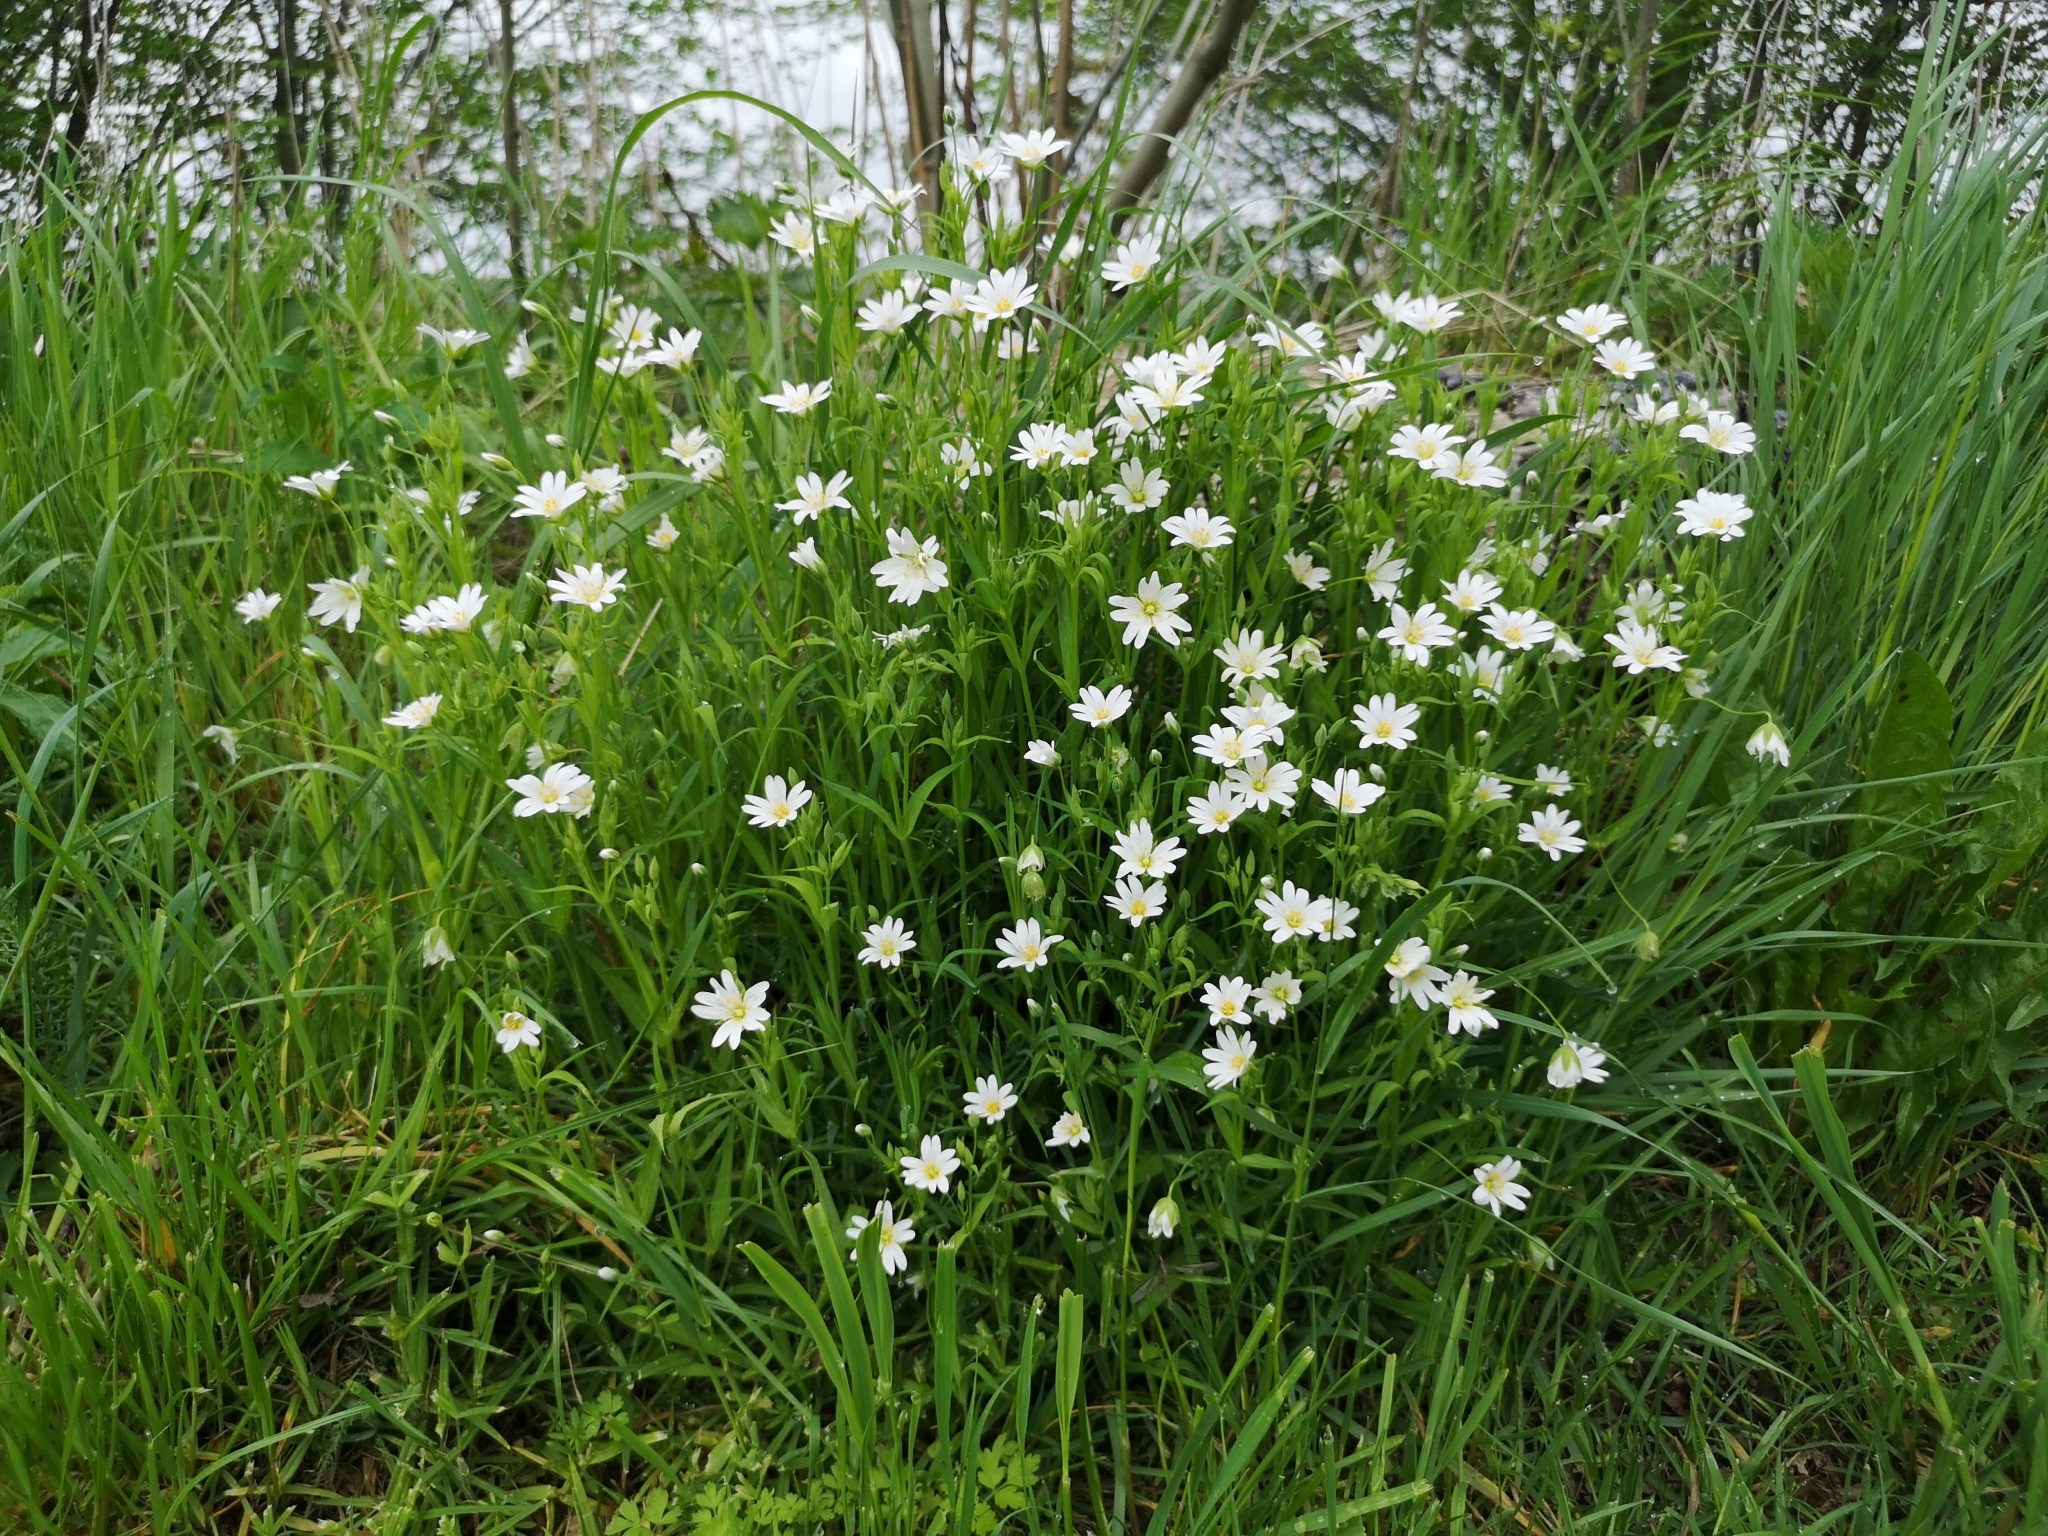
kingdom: Plantae
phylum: Tracheophyta
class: Magnoliopsida
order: Caryophyllales
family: Caryophyllaceae
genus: Rabelera
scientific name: Rabelera holostea
